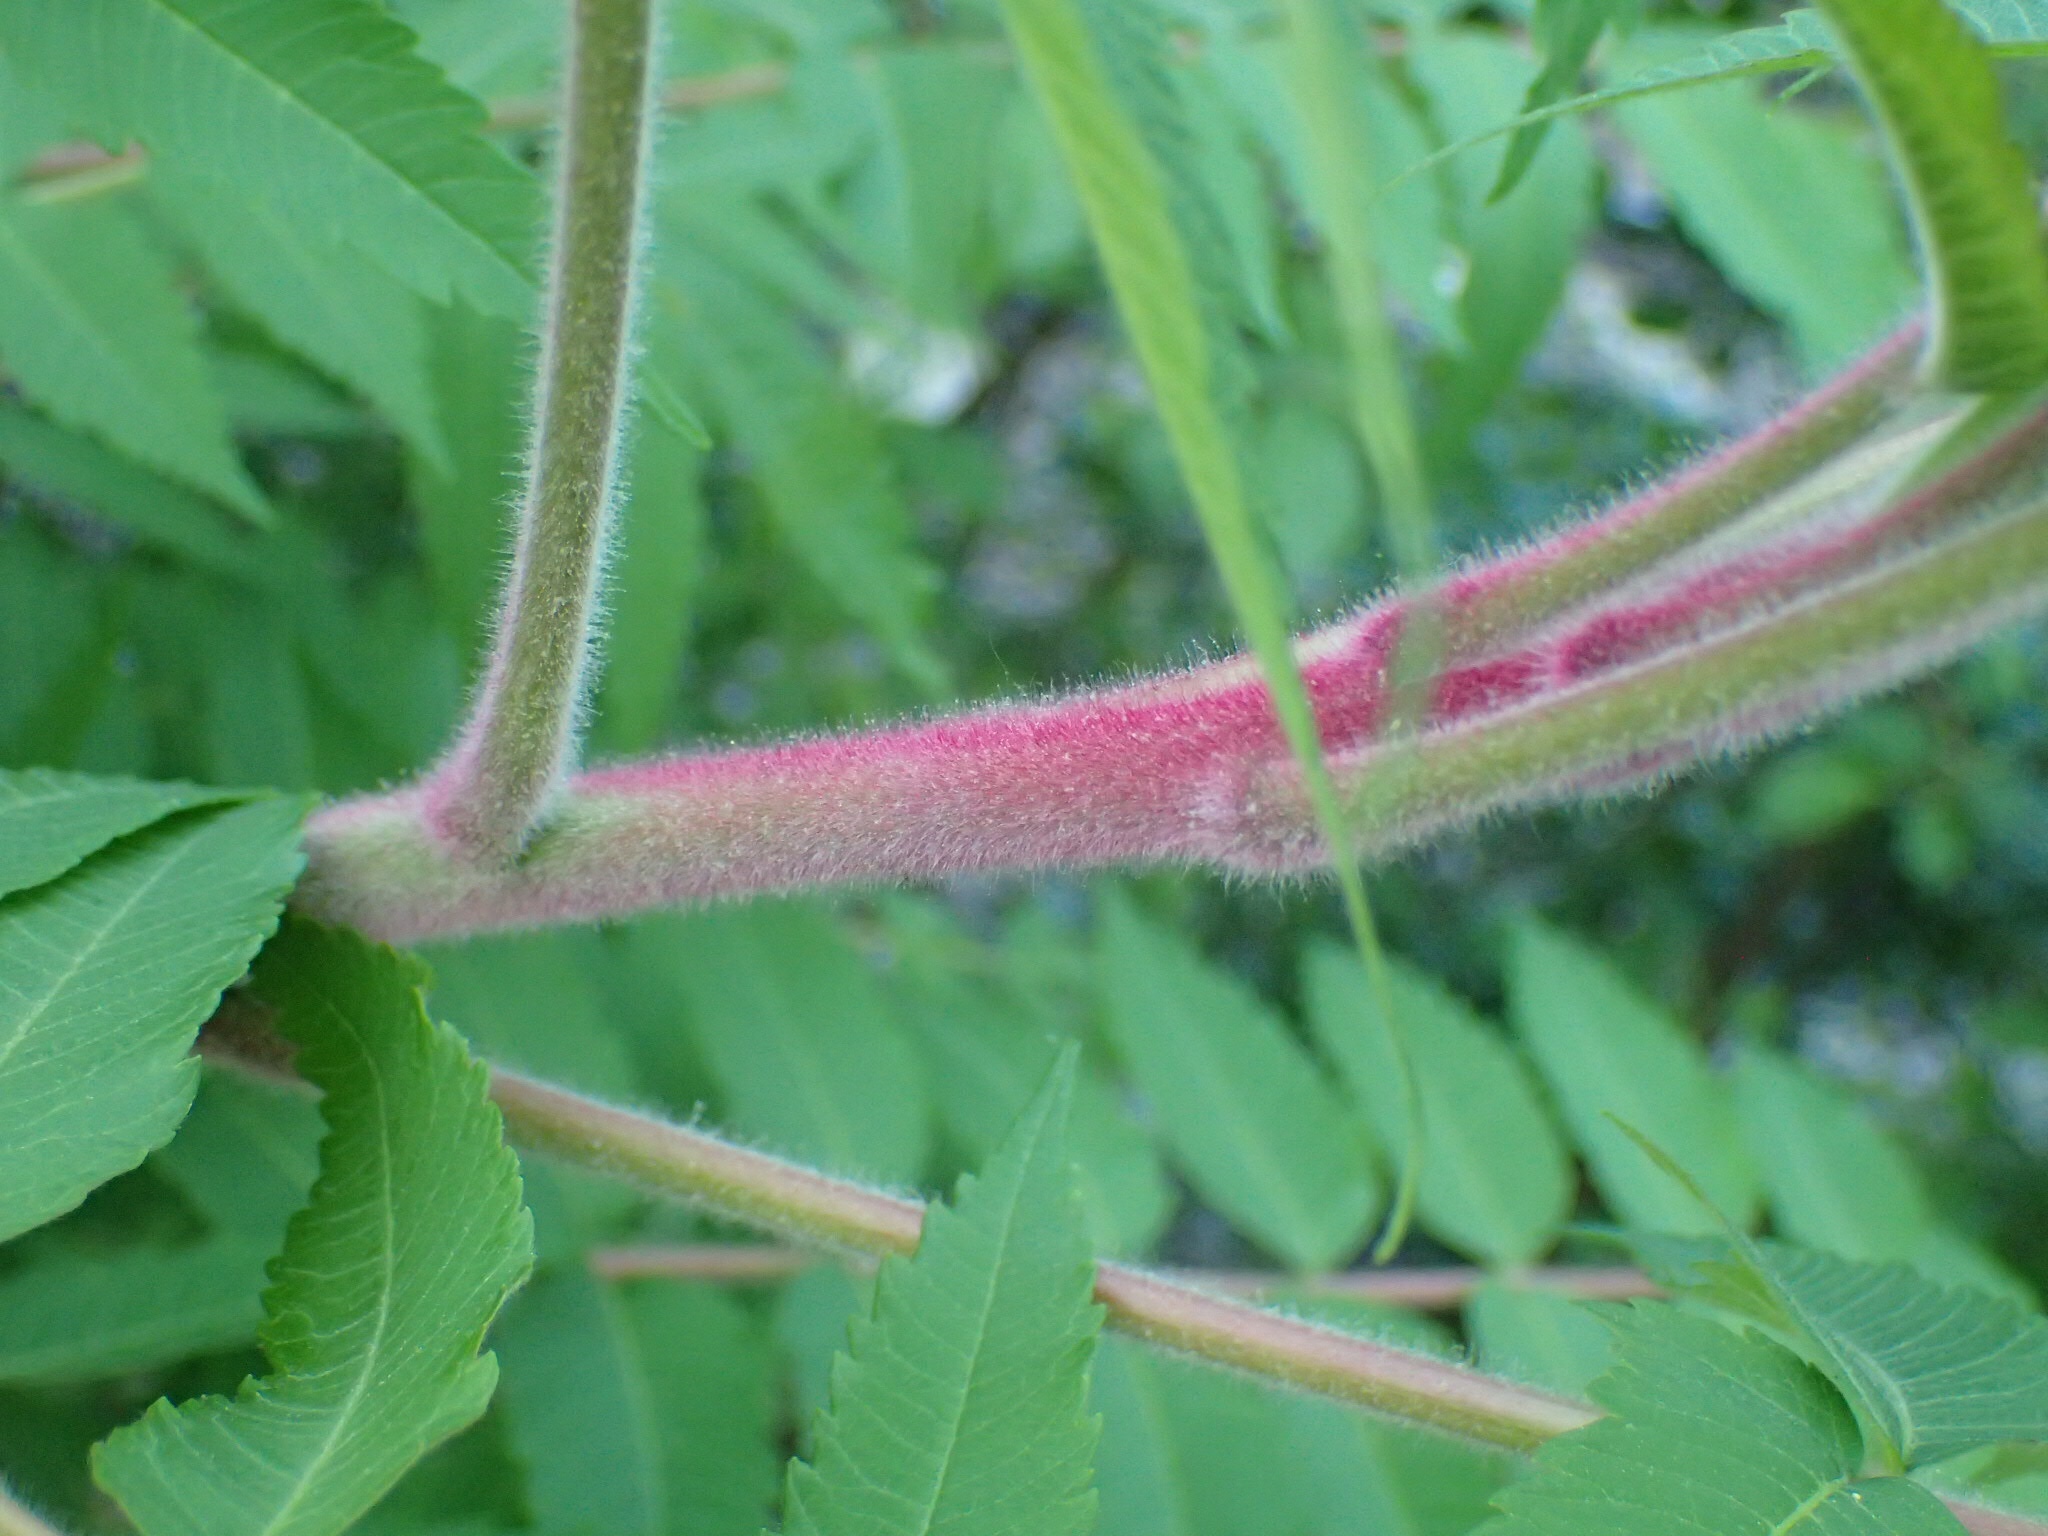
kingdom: Plantae
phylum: Tracheophyta
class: Magnoliopsida
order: Sapindales
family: Anacardiaceae
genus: Rhus
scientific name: Rhus typhina
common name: Staghorn sumac
